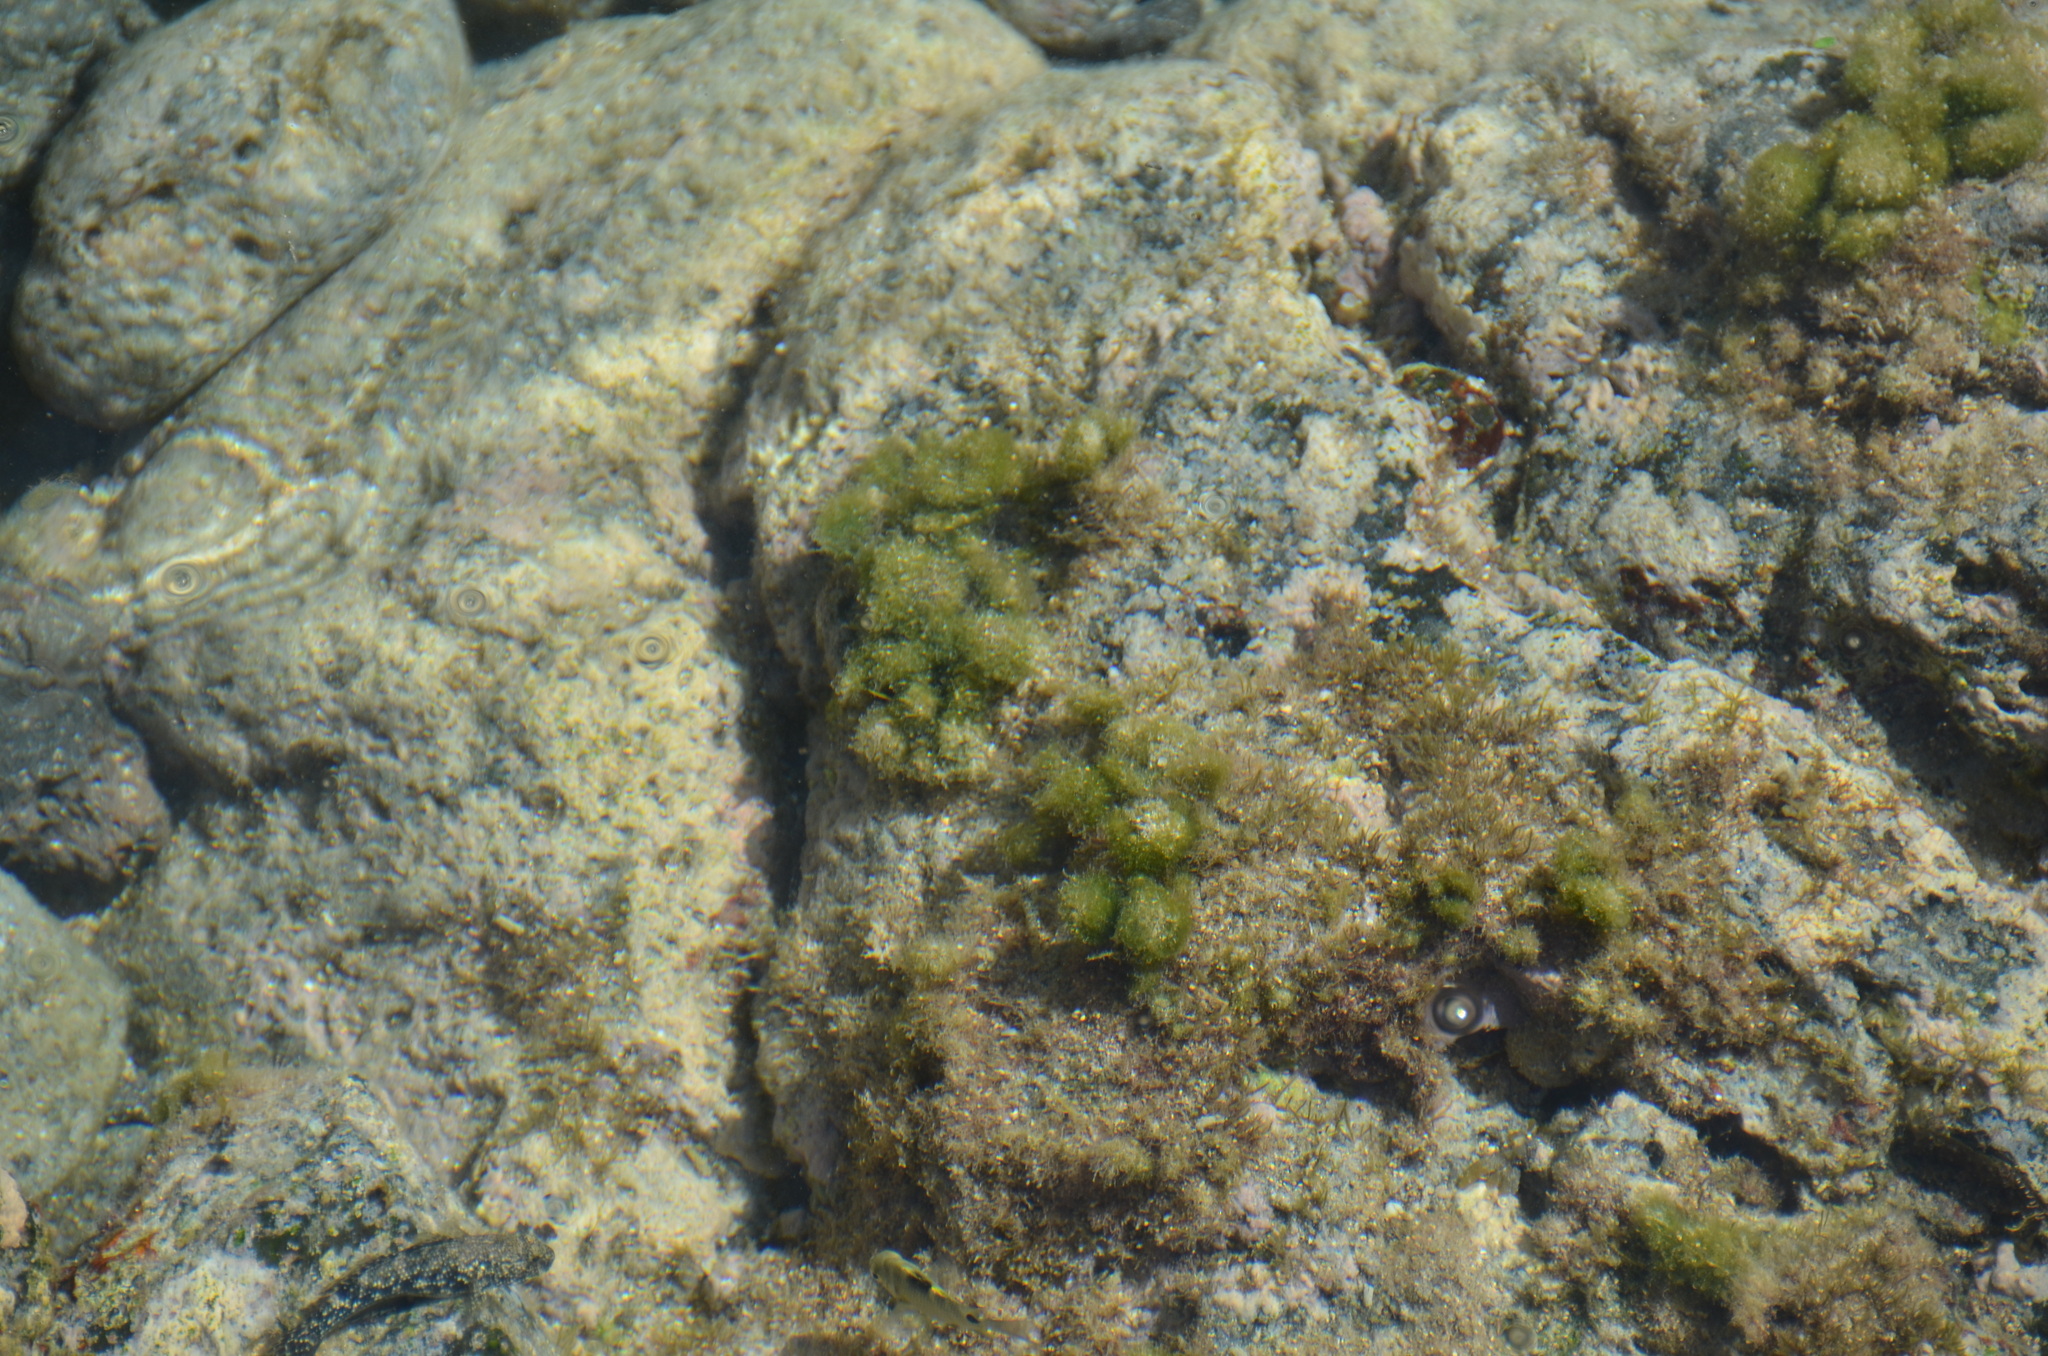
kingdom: Animalia
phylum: Chordata
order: Perciformes
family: Gobiidae
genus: Bathygobius
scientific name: Bathygobius coalitus
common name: Whitespotted goby
